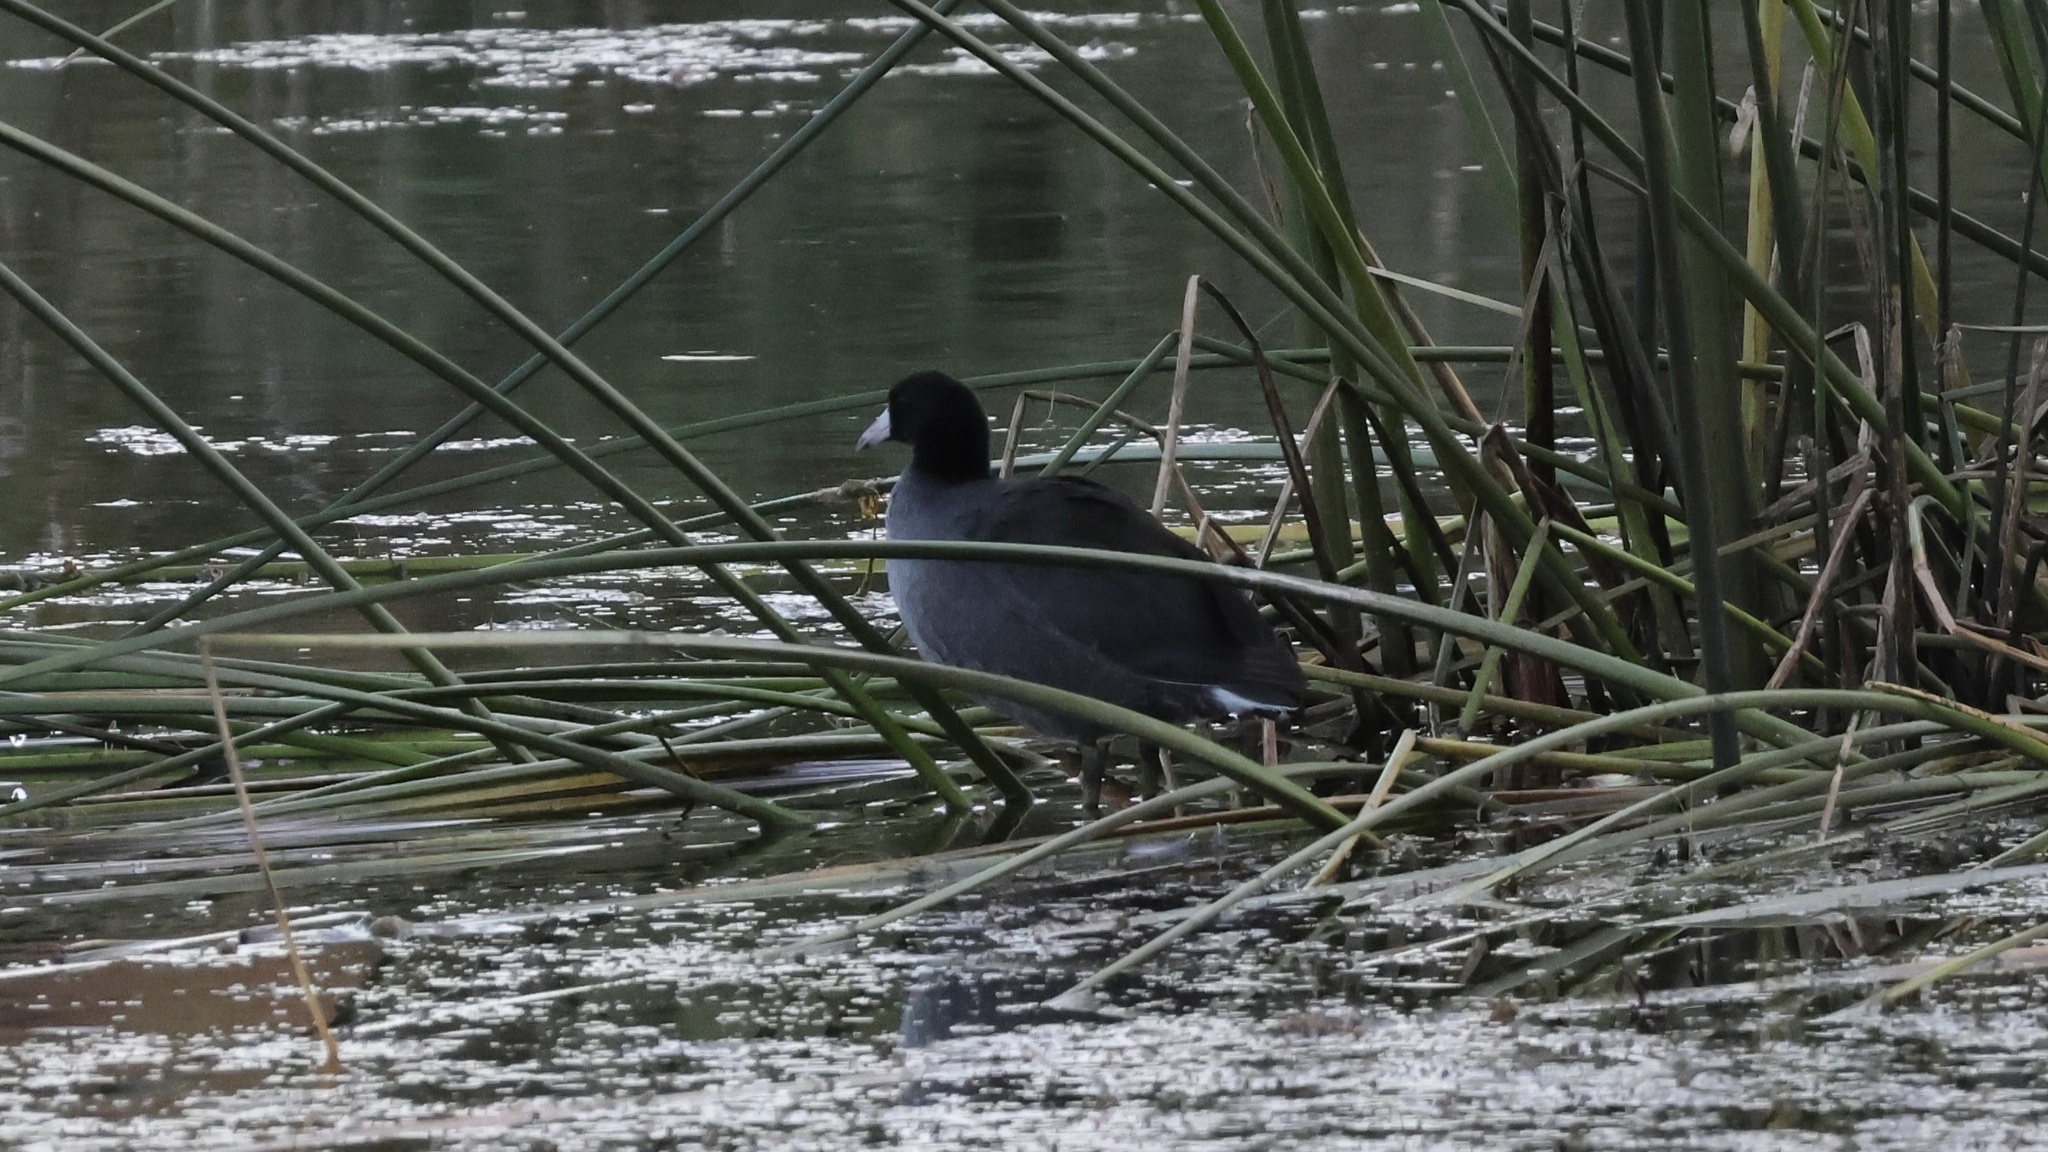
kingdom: Animalia
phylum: Chordata
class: Aves
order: Gruiformes
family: Rallidae
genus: Fulica
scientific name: Fulica americana
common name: American coot
